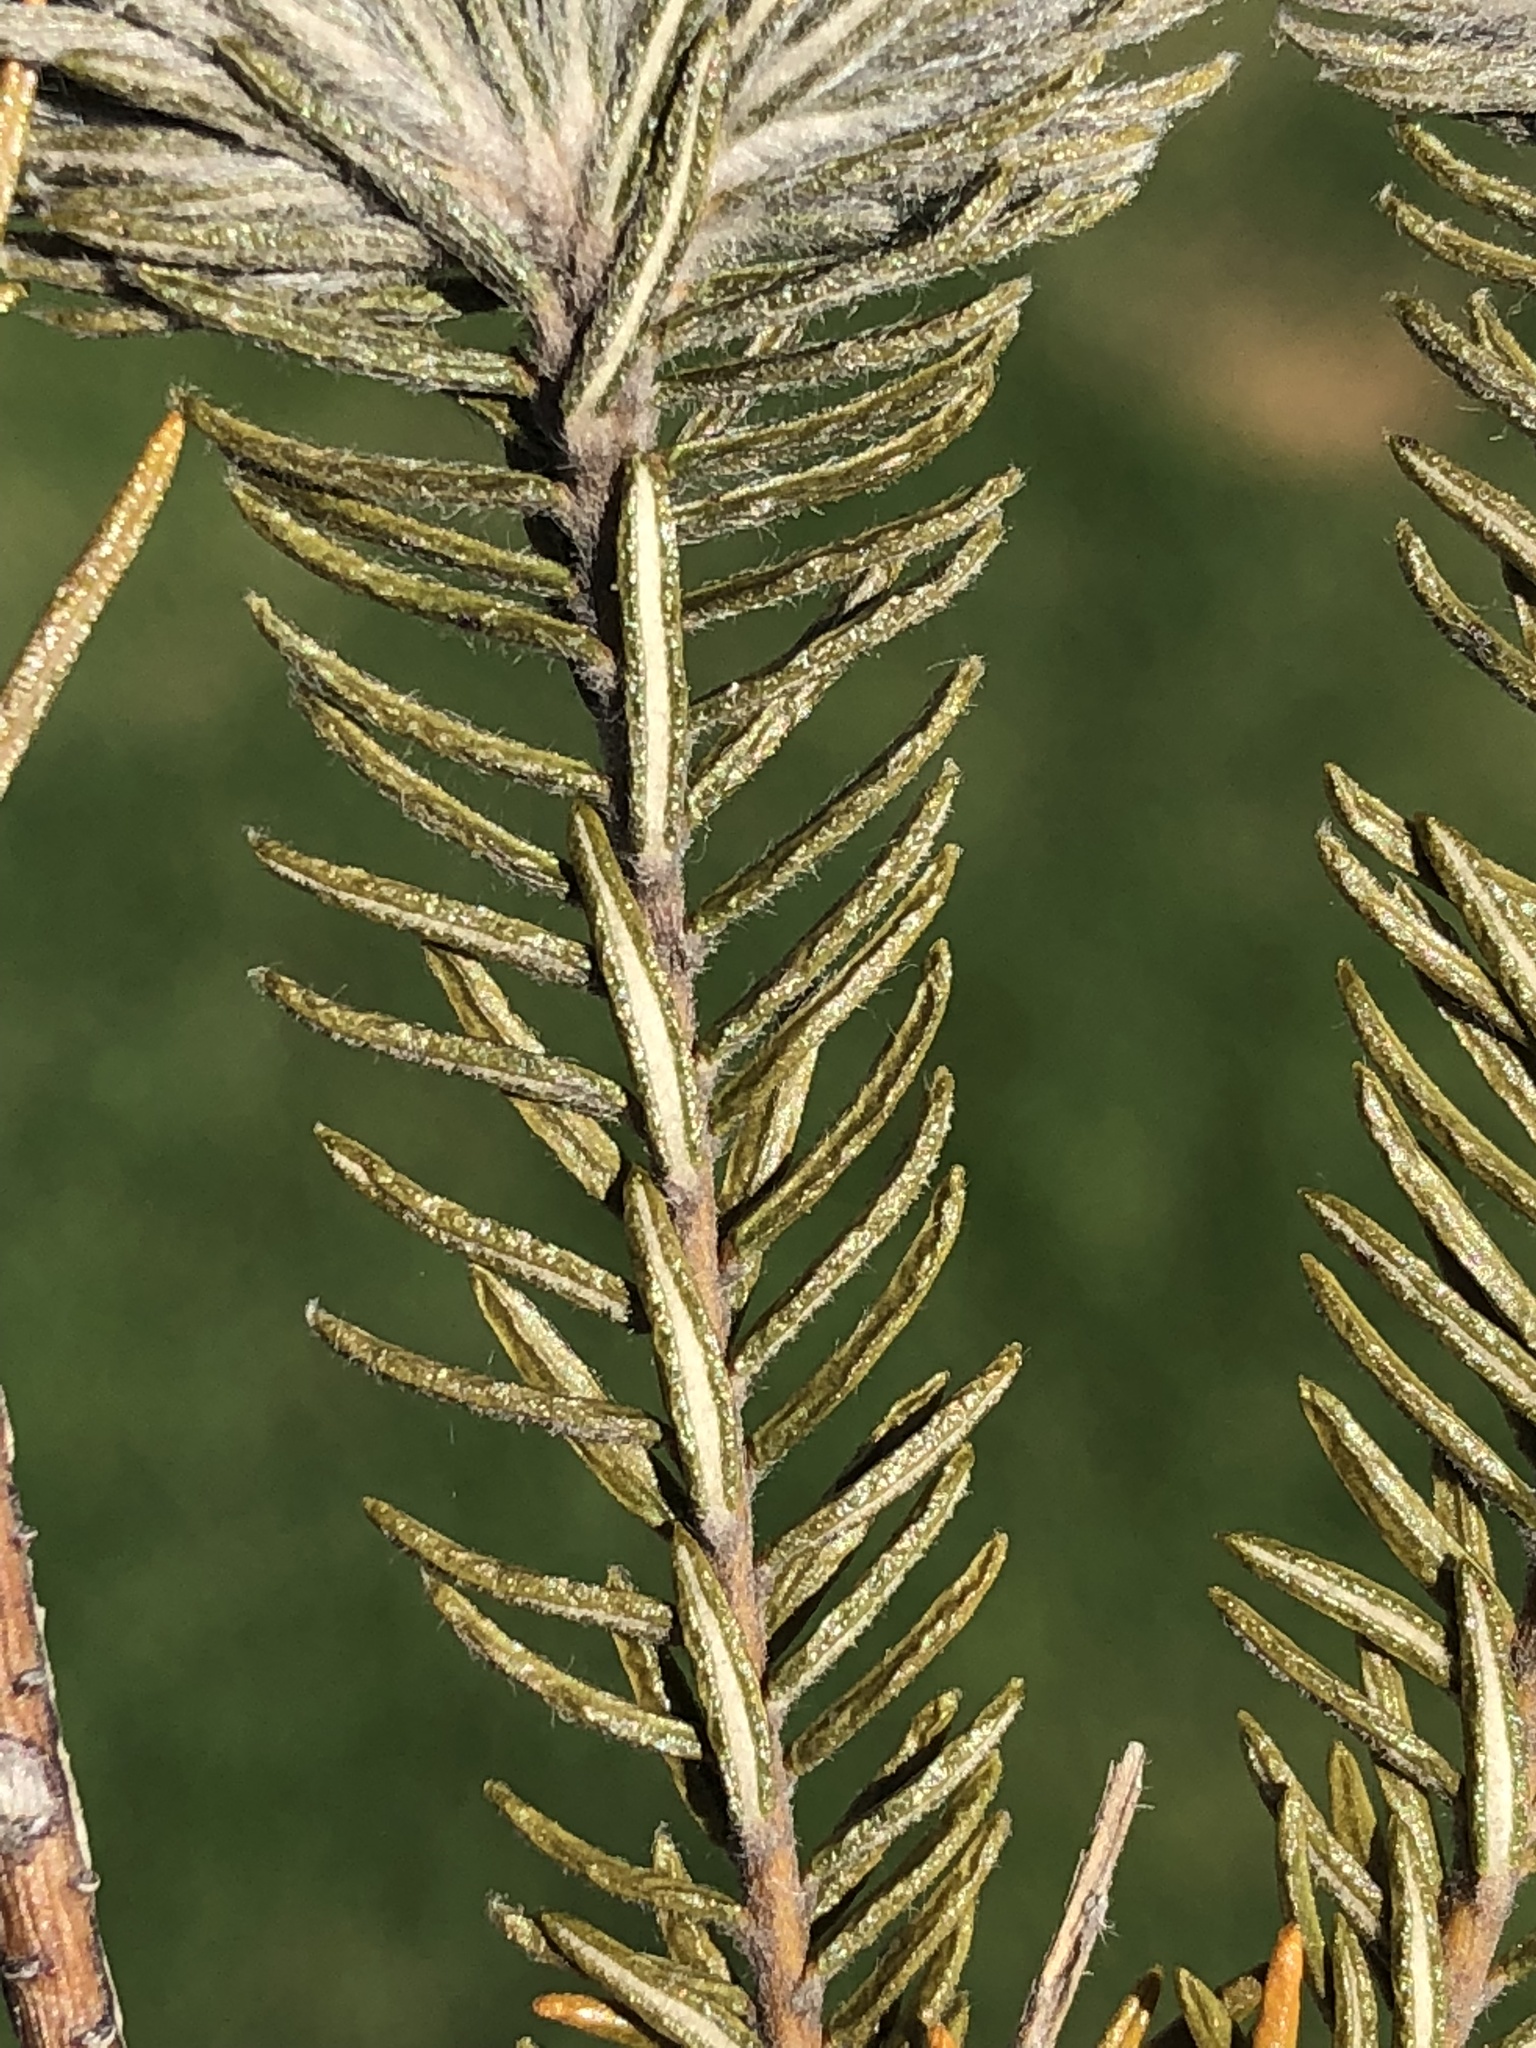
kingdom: Plantae
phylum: Tracheophyta
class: Magnoliopsida
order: Rosales
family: Rhamnaceae
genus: Phylica
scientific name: Phylica pubescens
